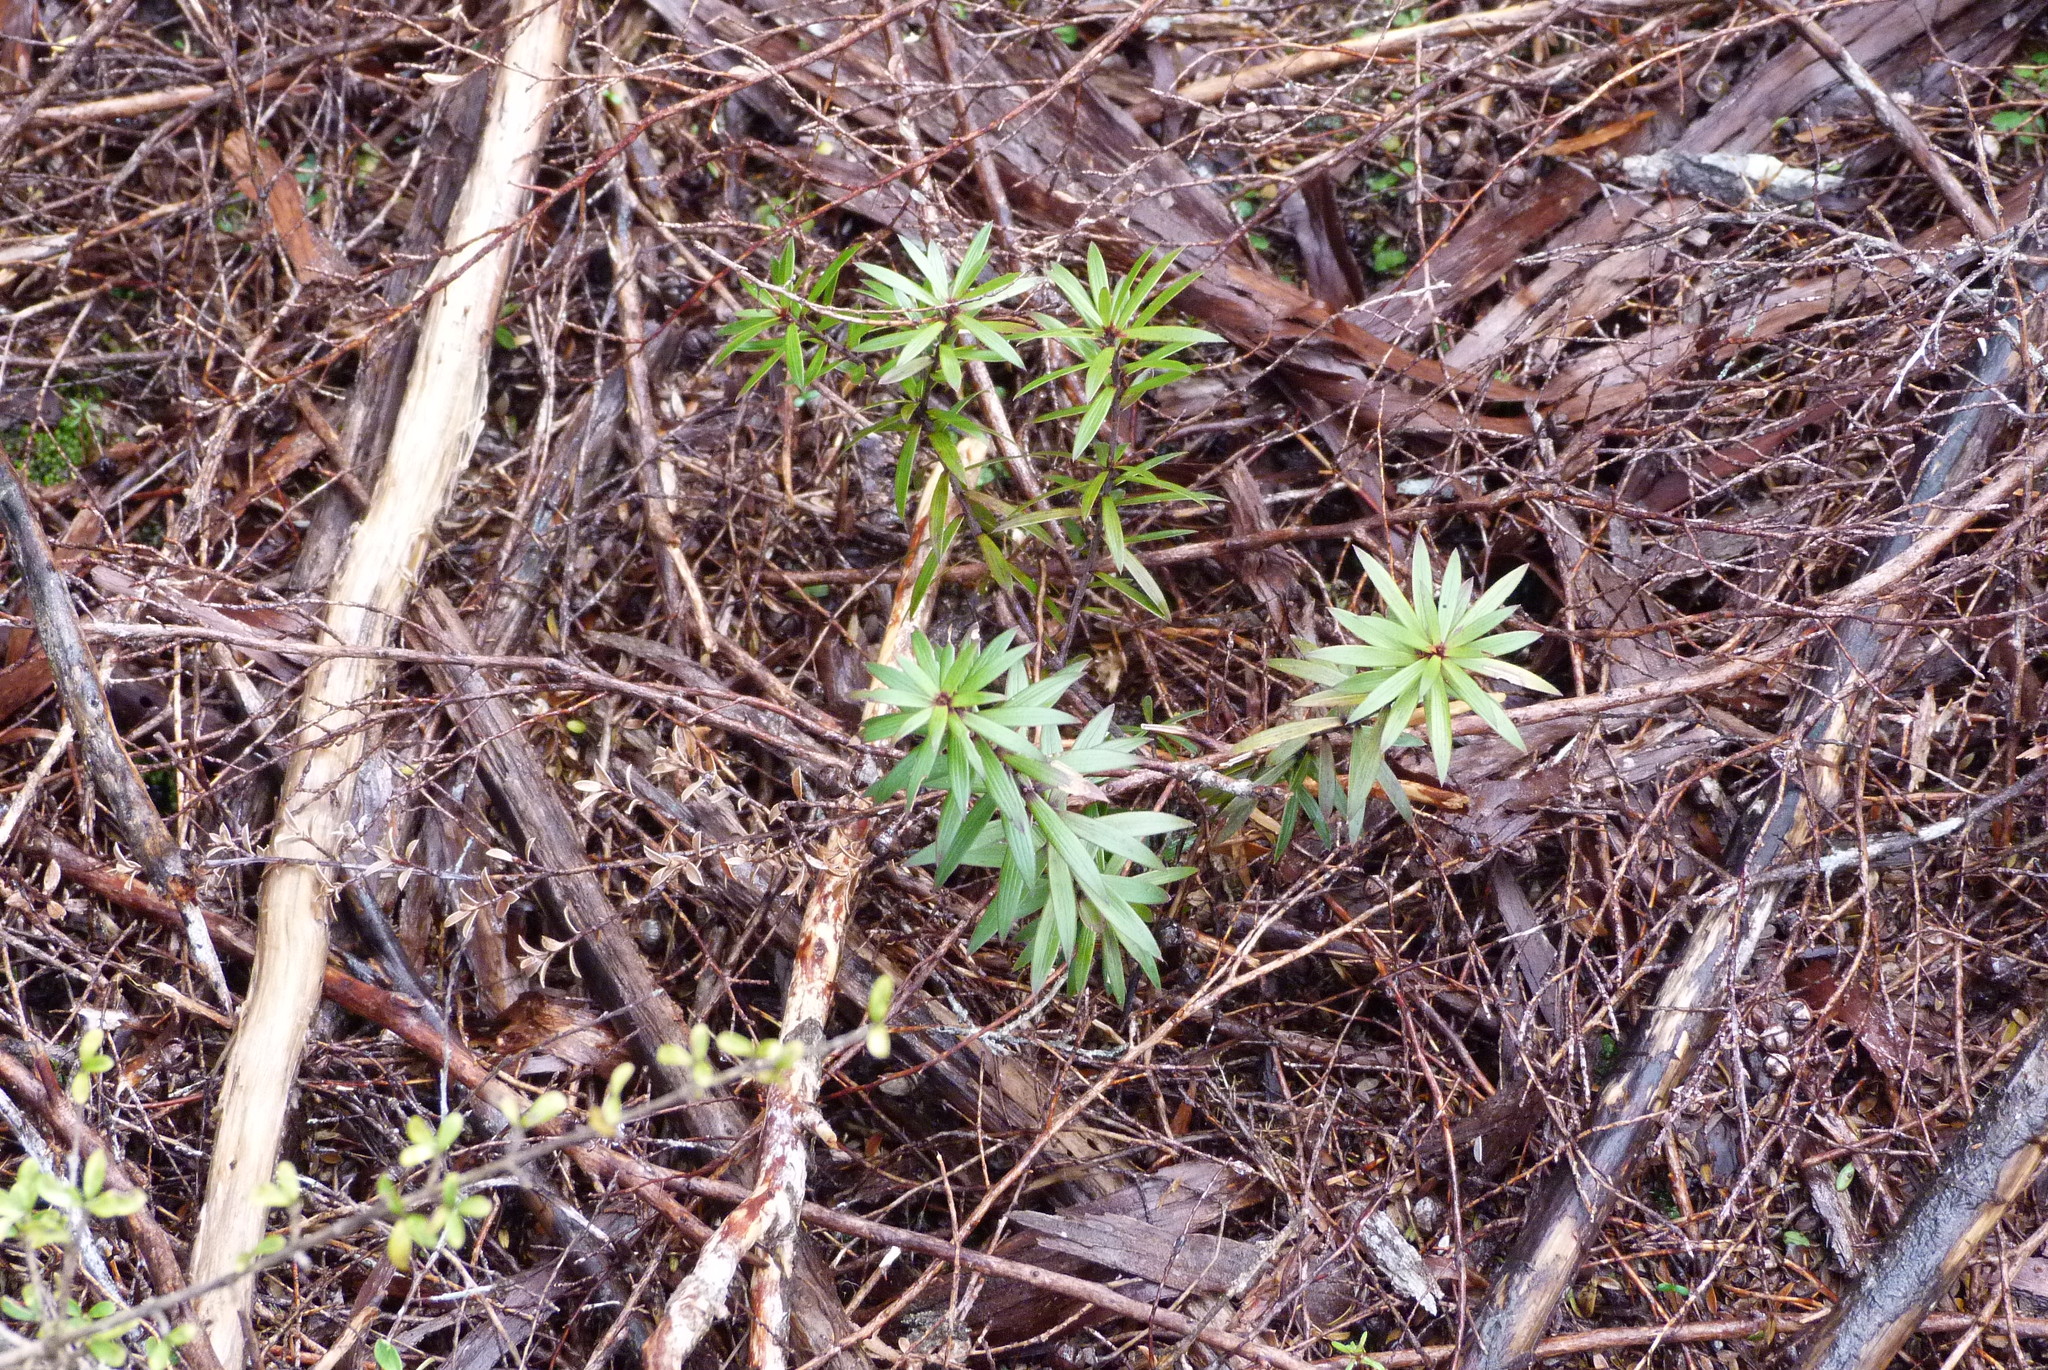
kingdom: Plantae
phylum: Tracheophyta
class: Magnoliopsida
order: Ericales
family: Ericaceae
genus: Leucopogon
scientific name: Leucopogon fasciculatus
